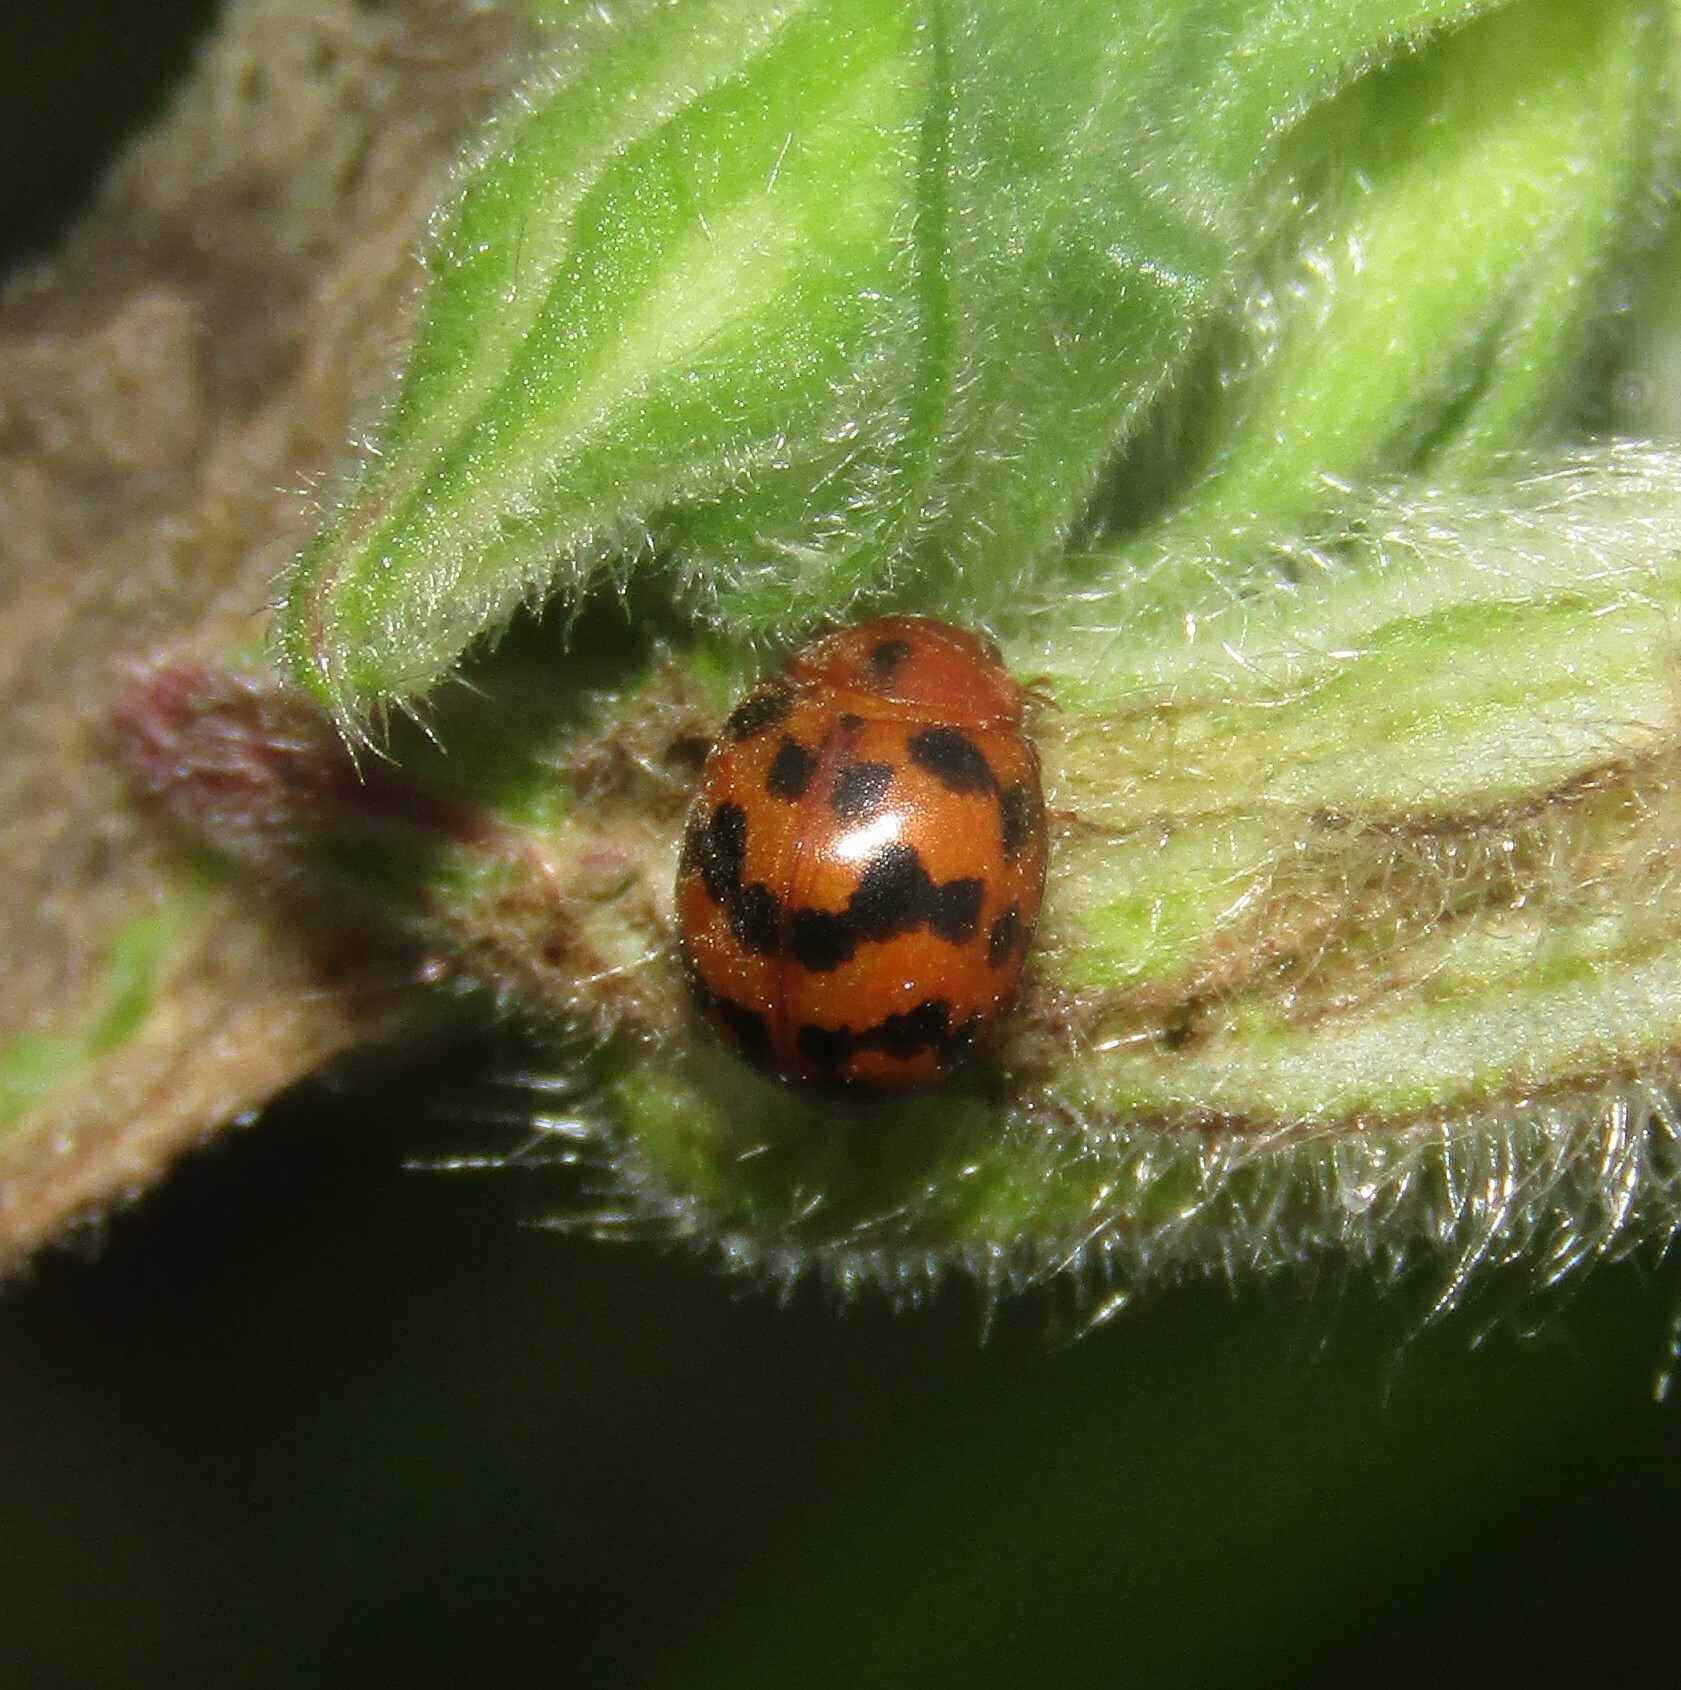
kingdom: Animalia
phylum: Arthropoda
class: Insecta
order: Coleoptera
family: Coccinellidae
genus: Subcoccinella
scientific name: Subcoccinella vigintiquatuorpunctata
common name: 24-spot ladybird
